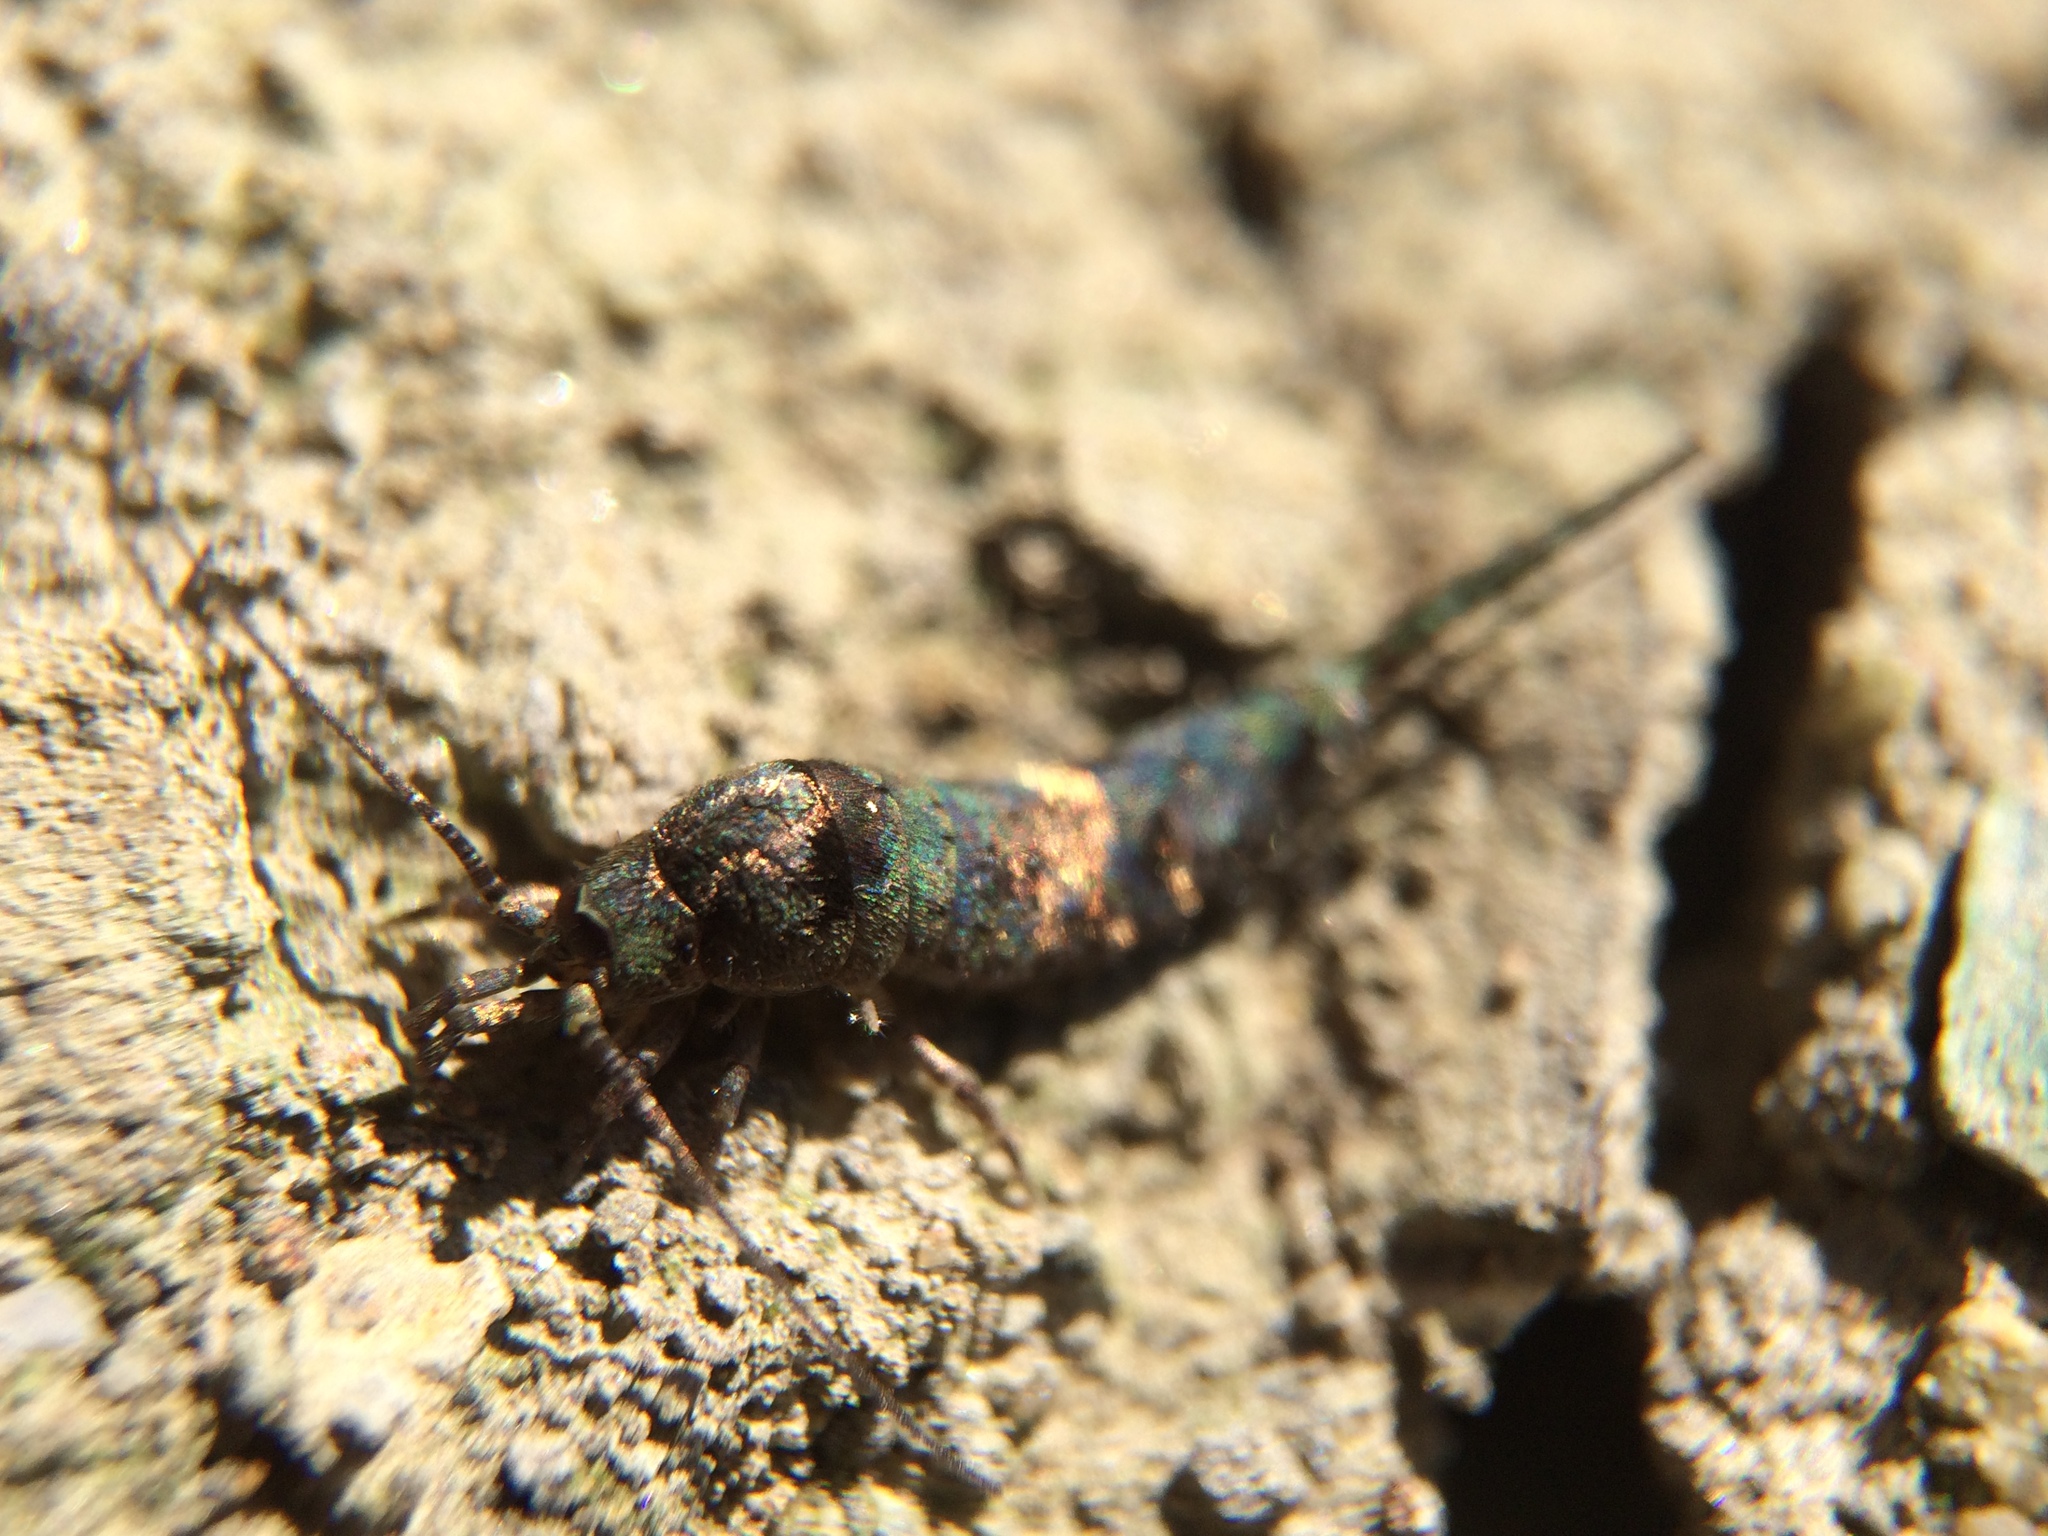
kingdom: Animalia
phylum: Arthropoda
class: Insecta
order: Archaeognatha
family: Machilidae
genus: Trigoniophthalmus
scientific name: Trigoniophthalmus alternatus
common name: Jumping bristletail
